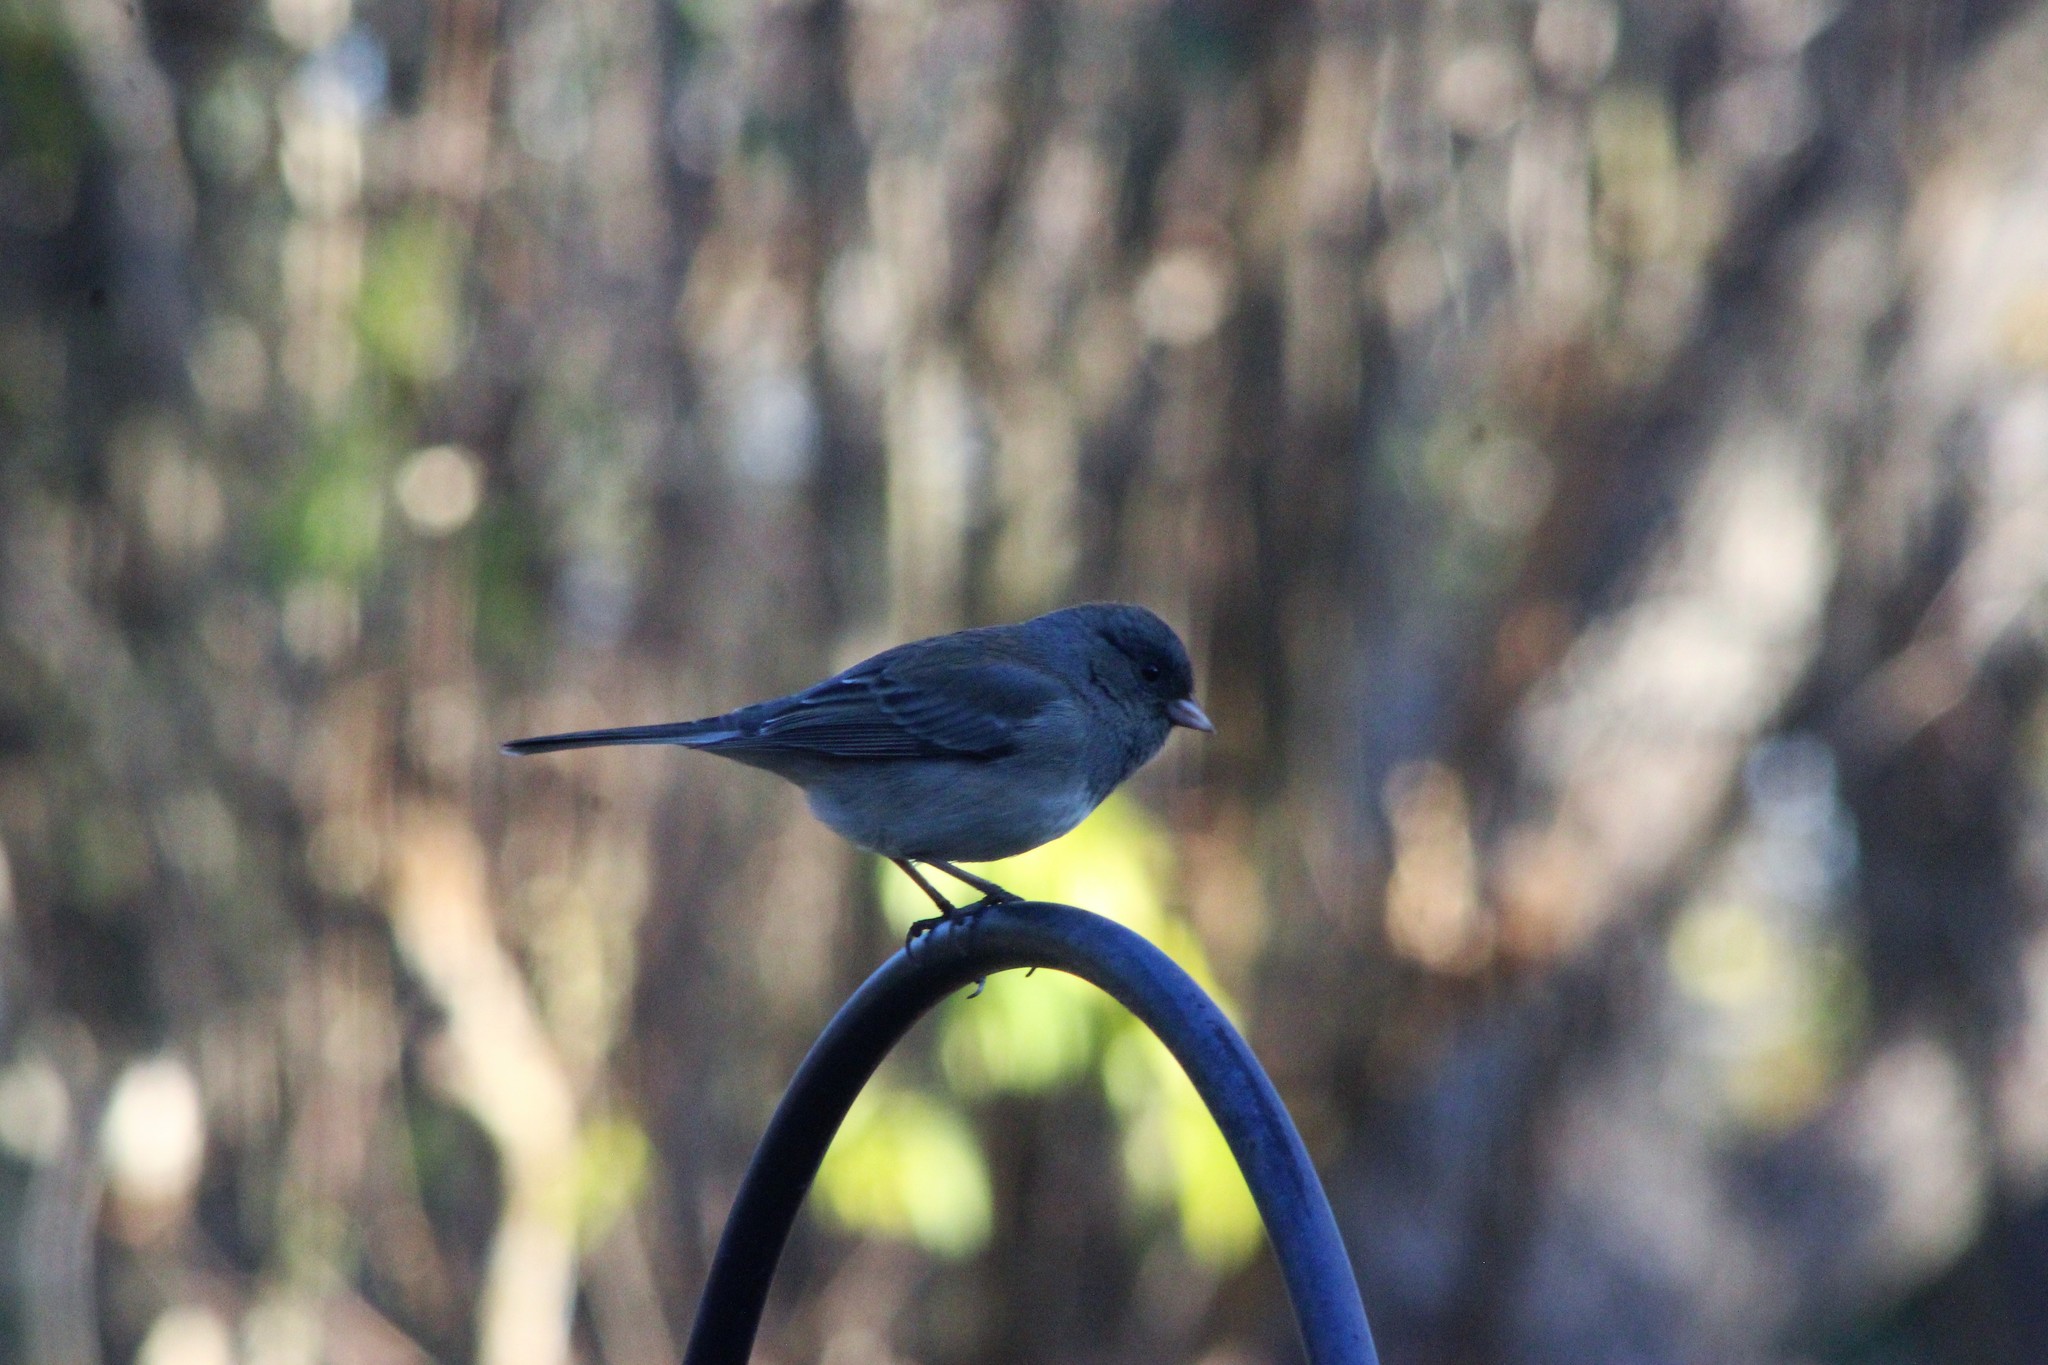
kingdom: Animalia
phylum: Chordata
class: Aves
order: Passeriformes
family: Passerellidae
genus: Junco
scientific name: Junco hyemalis
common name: Dark-eyed junco
